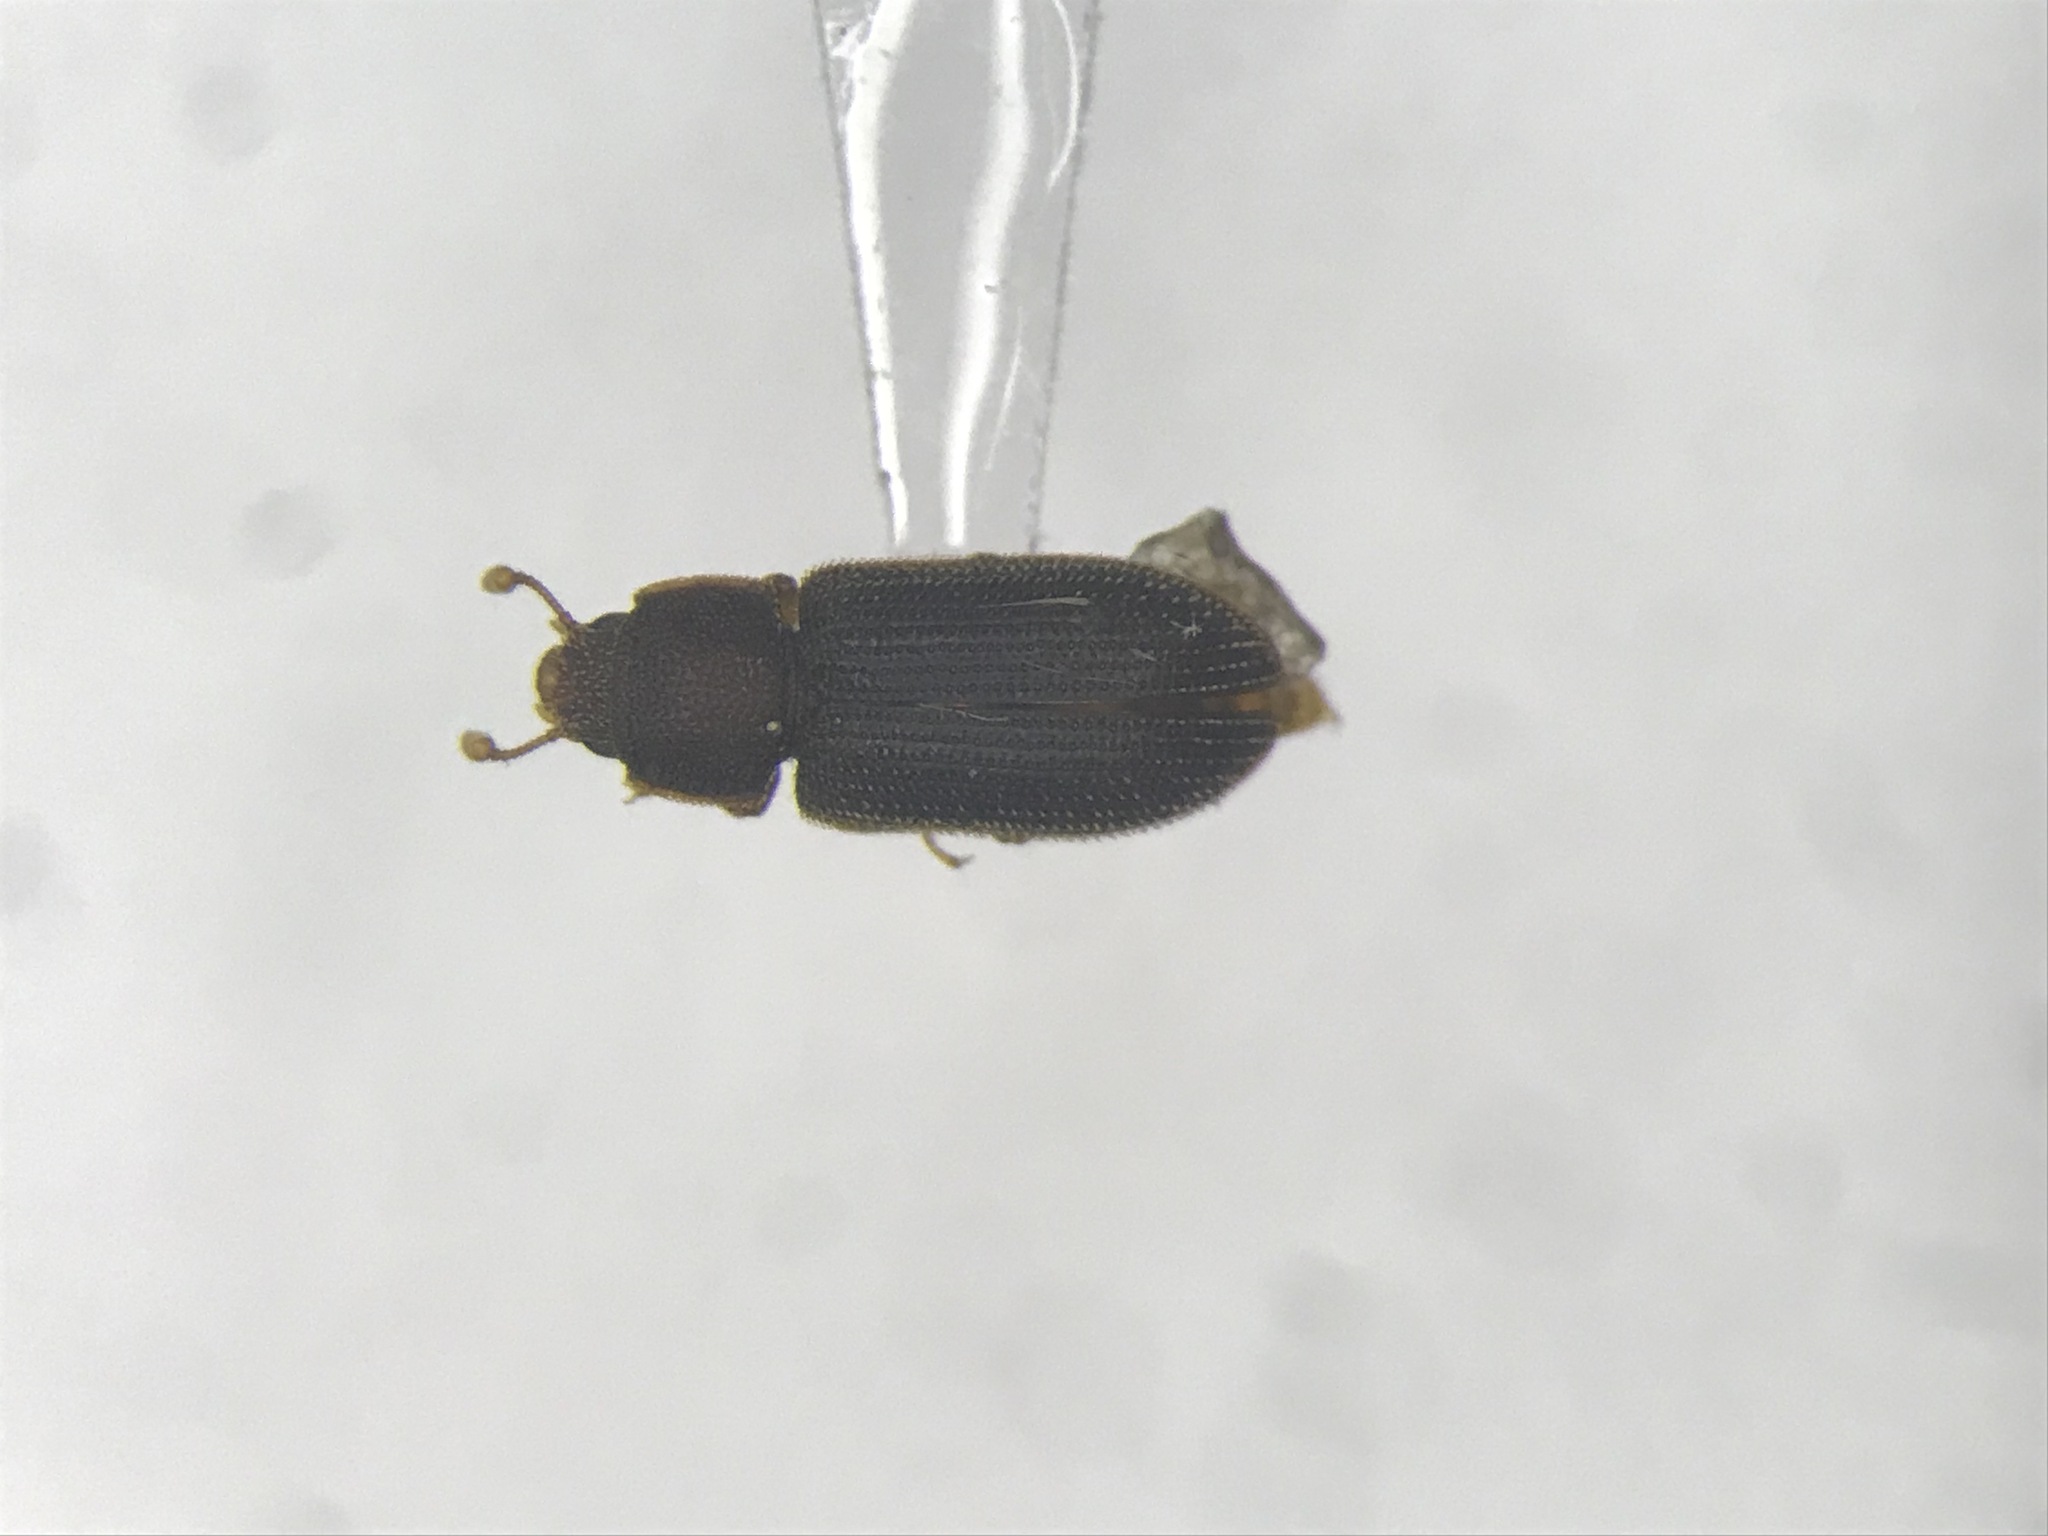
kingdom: Animalia
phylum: Arthropoda
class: Insecta
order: Coleoptera
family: Zopheridae
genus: Synchita
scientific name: Synchita fuliginosa
